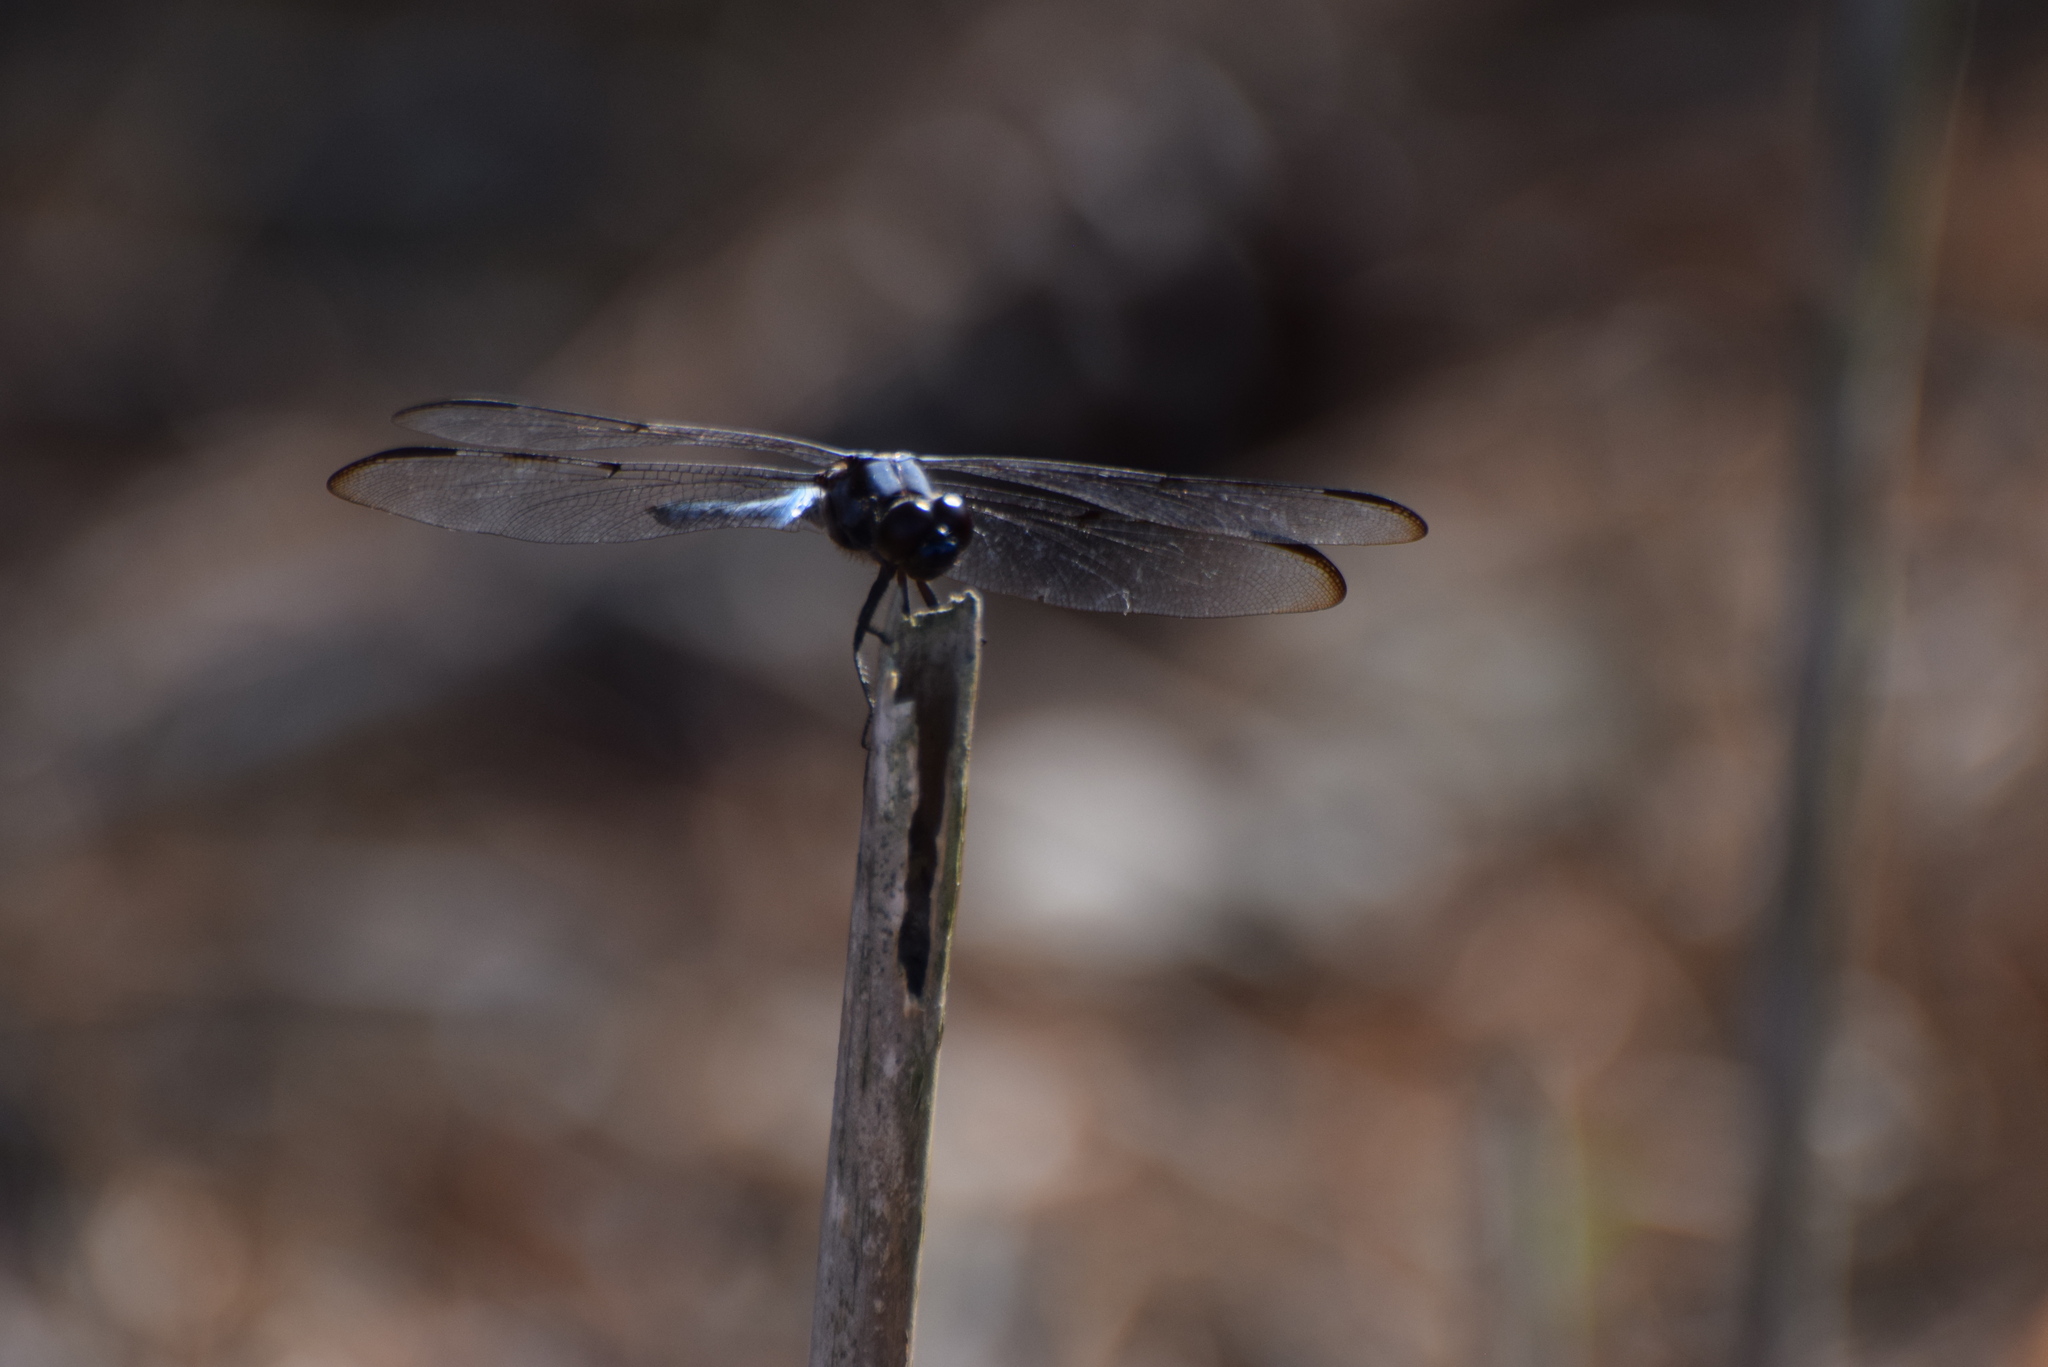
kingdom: Animalia
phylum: Arthropoda
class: Insecta
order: Odonata
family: Libellulidae
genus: Libellula
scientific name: Libellula axilena
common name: Bar-winged skimmer
